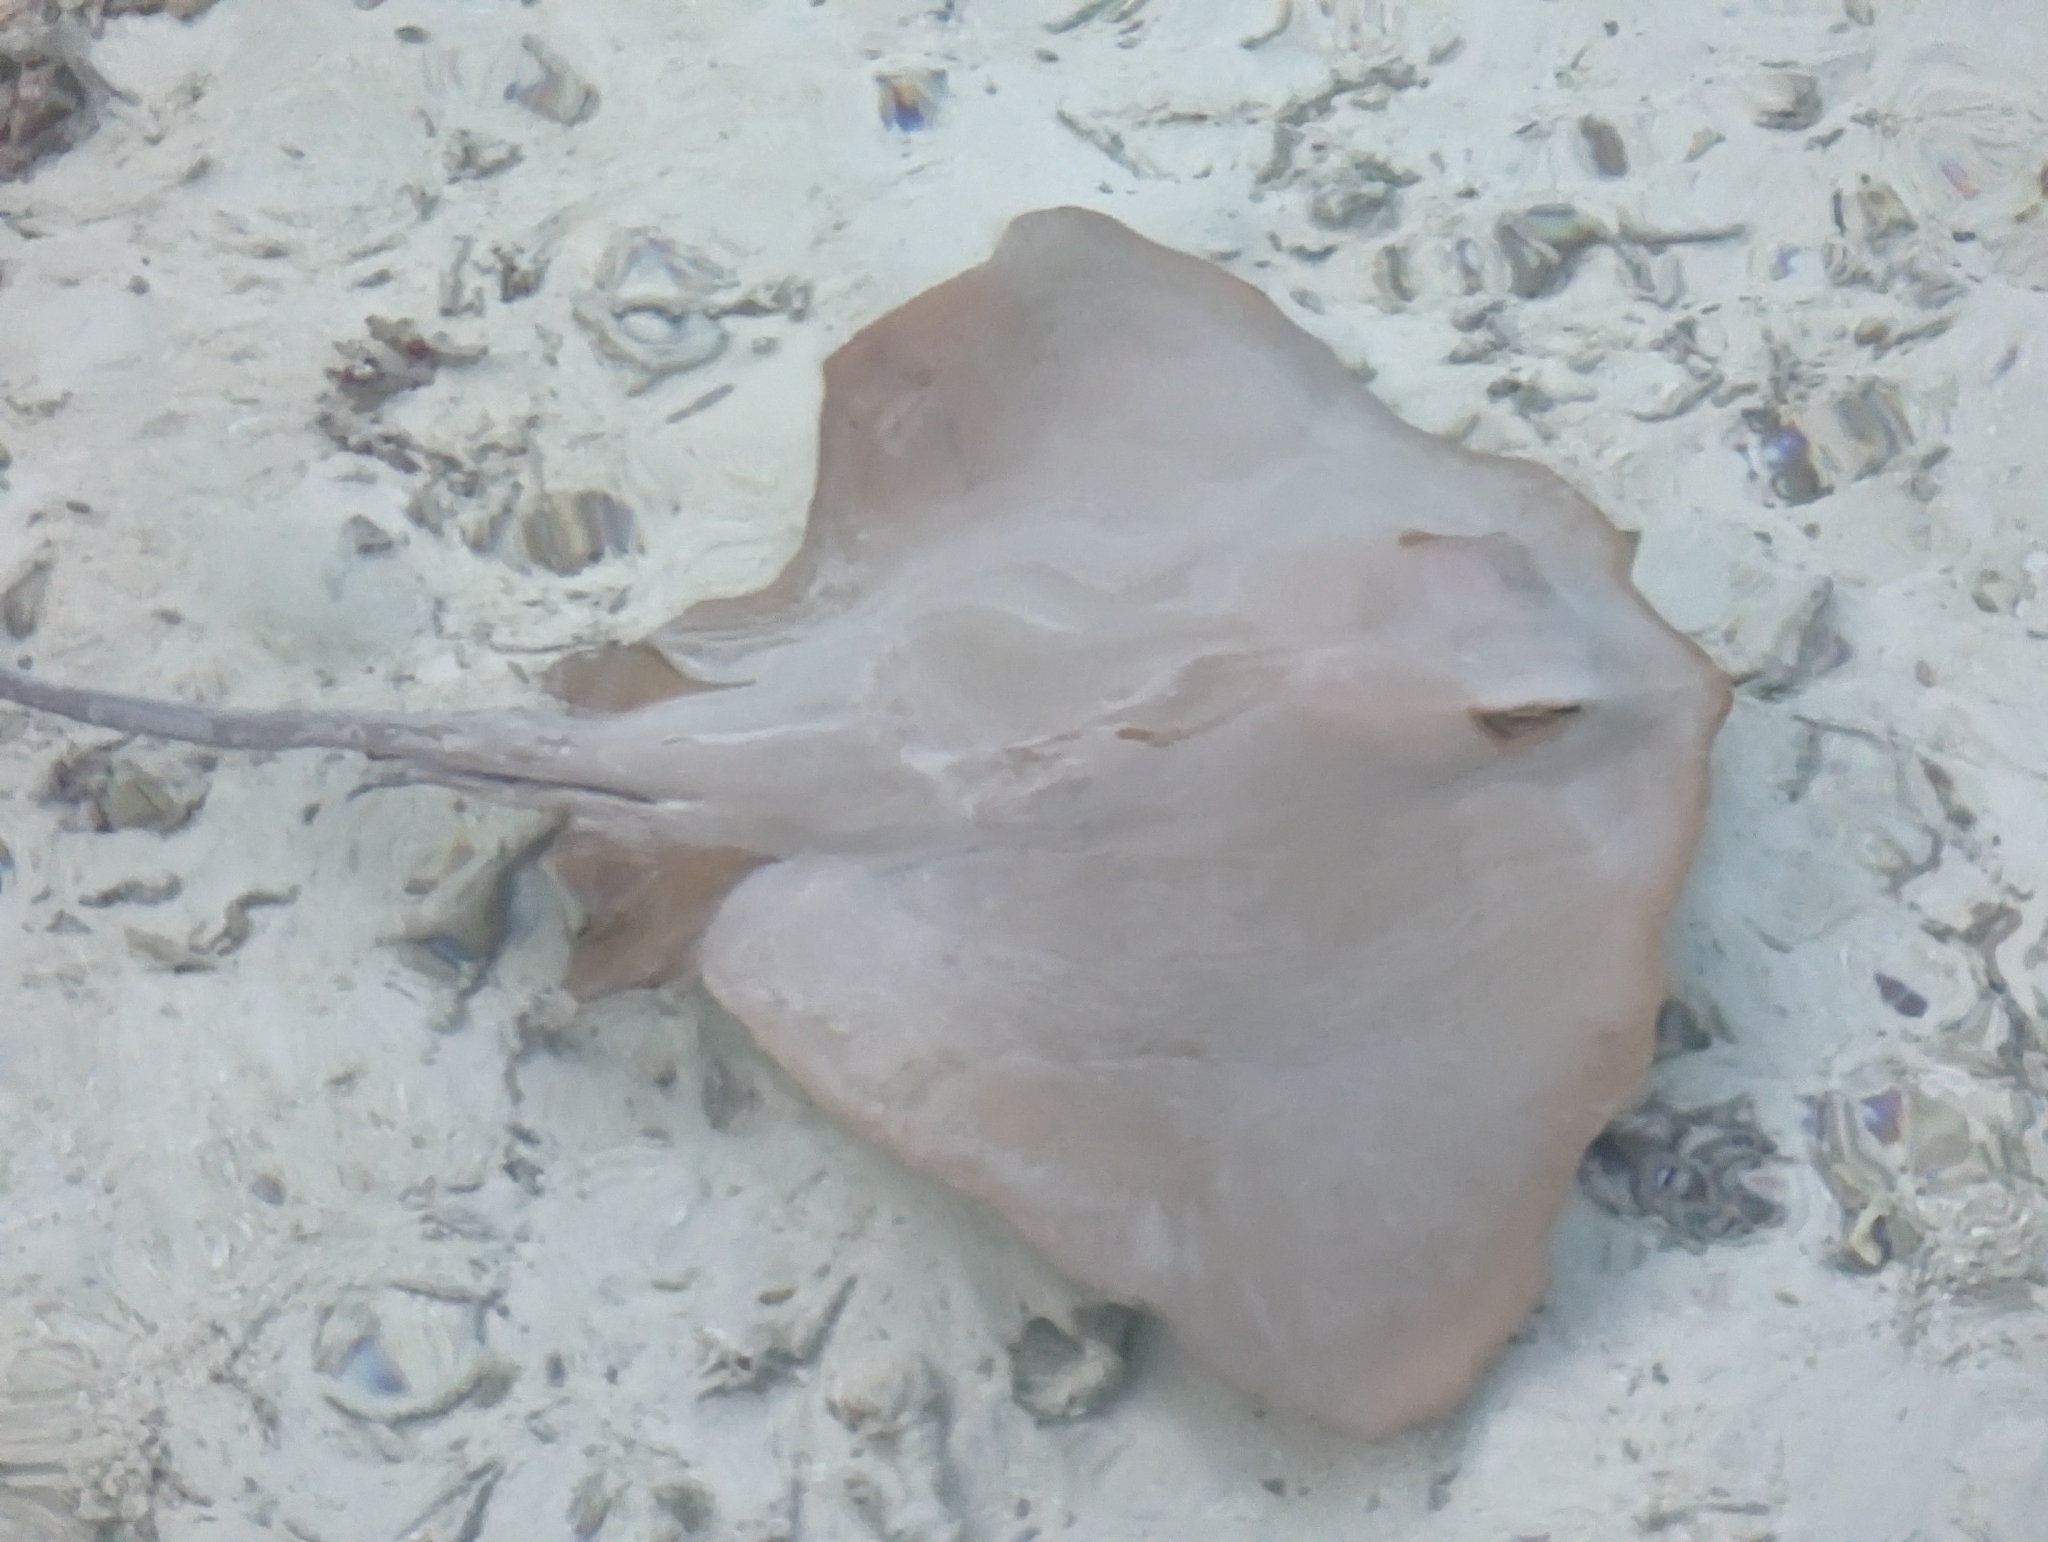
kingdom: Animalia
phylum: Chordata
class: Elasmobranchii
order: Myliobatiformes
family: Dasyatidae
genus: Pastinachus
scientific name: Pastinachus ater
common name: Banana-tail ray
